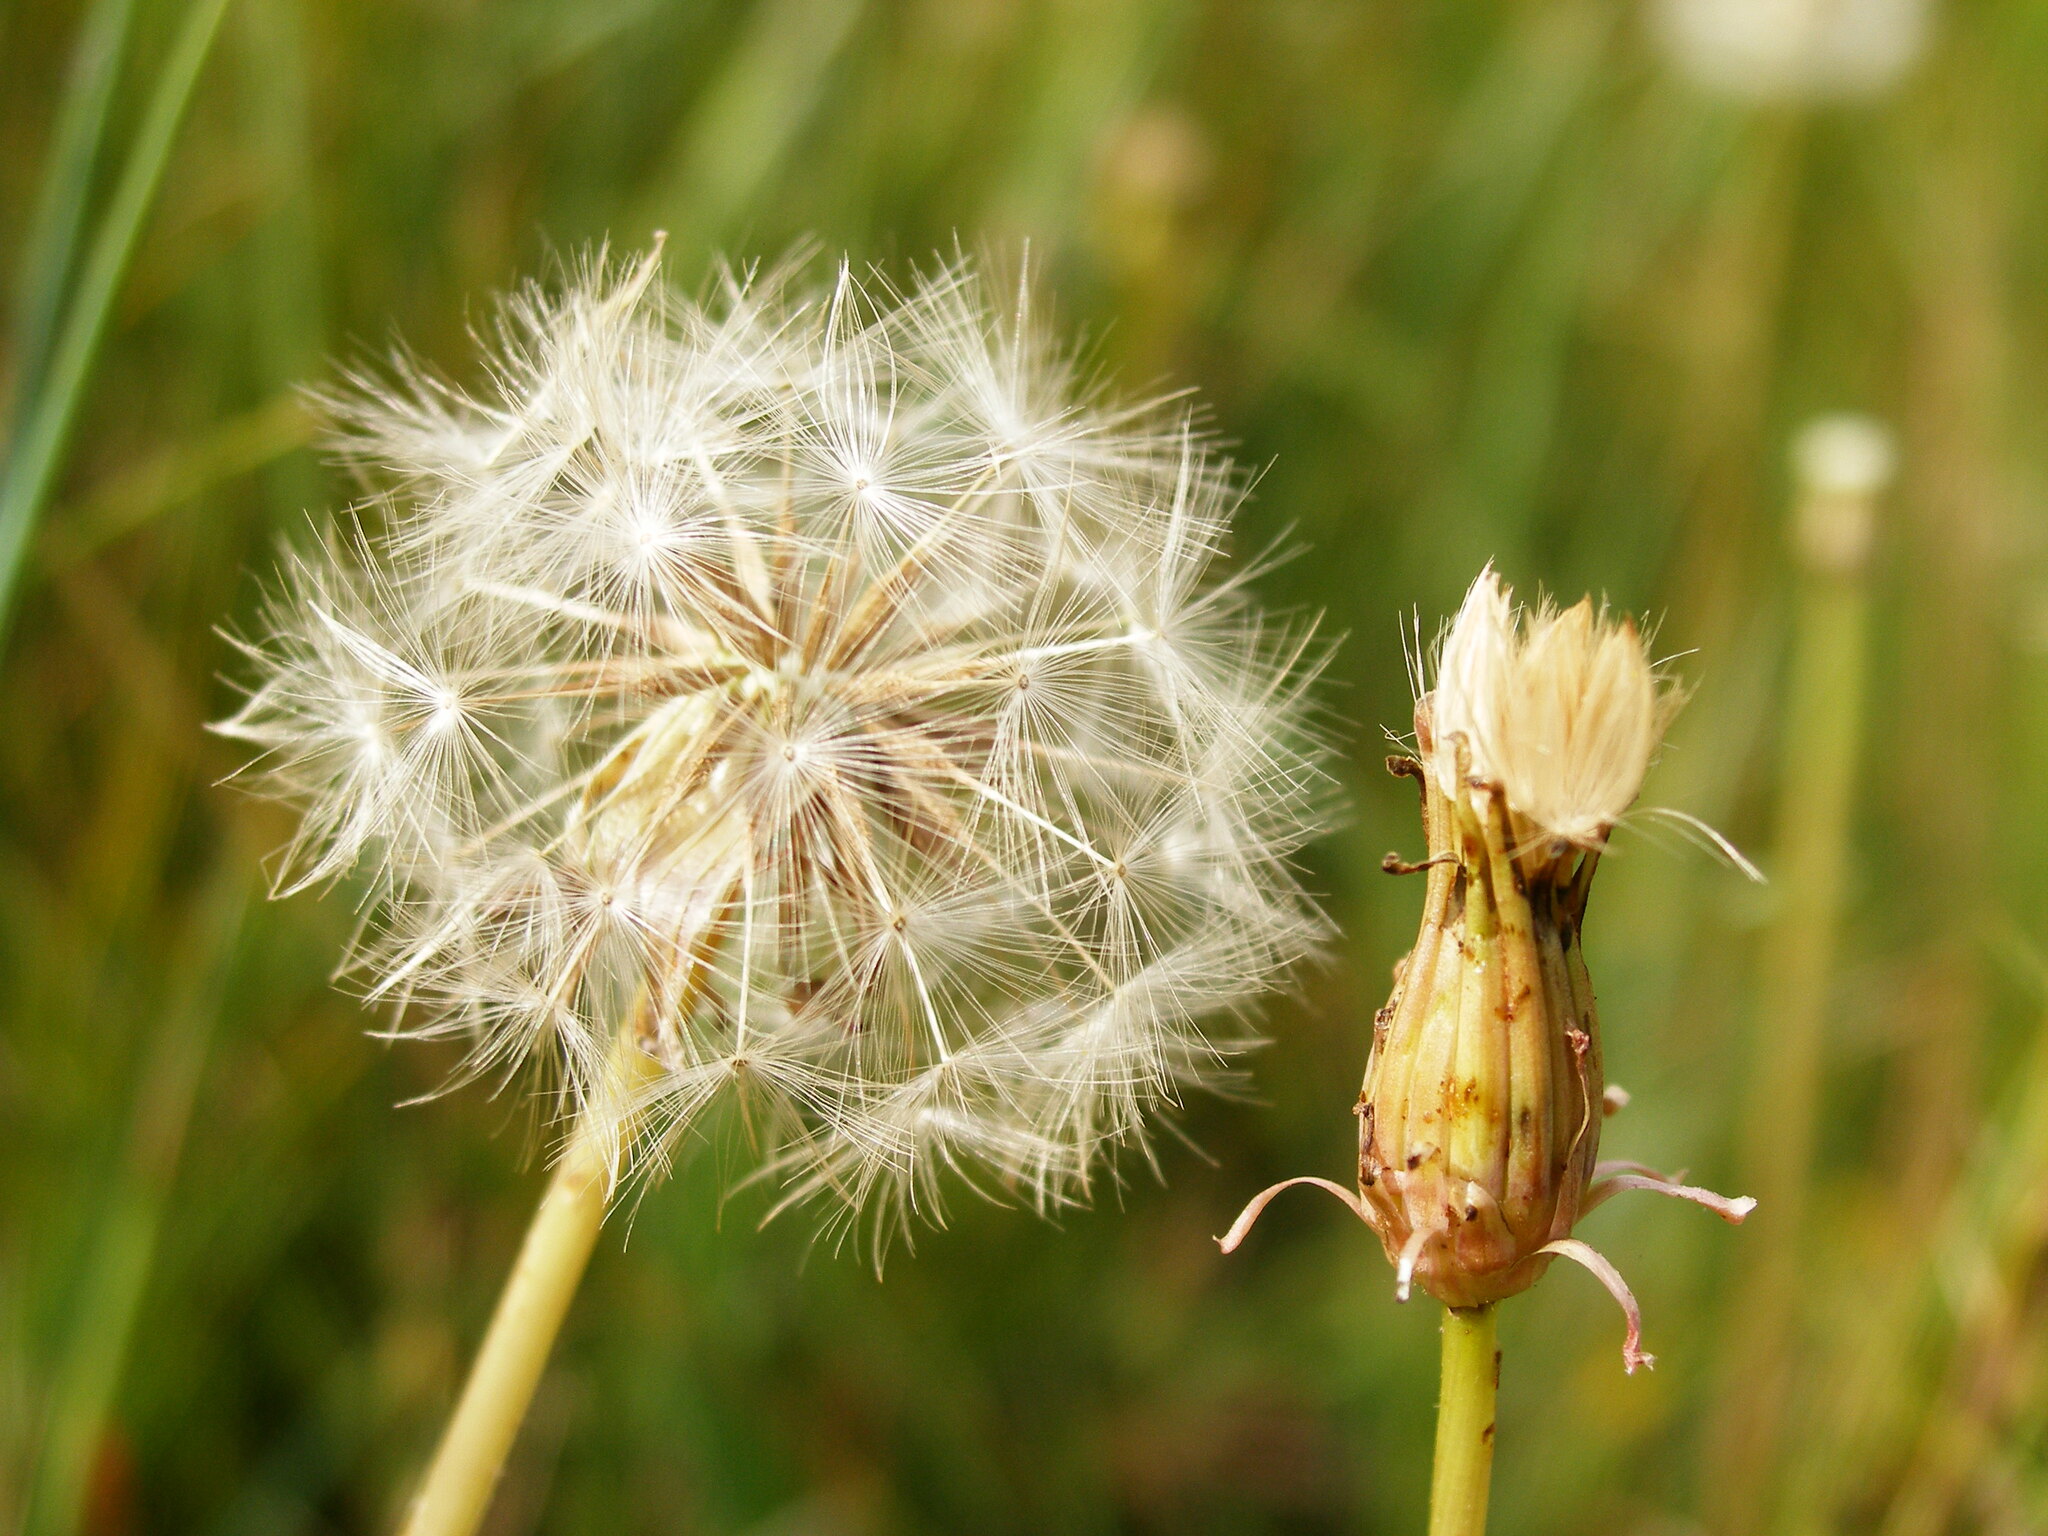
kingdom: Plantae
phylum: Tracheophyta
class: Magnoliopsida
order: Asterales
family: Asteraceae
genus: Taraxacum
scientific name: Taraxacum bessarabicum
